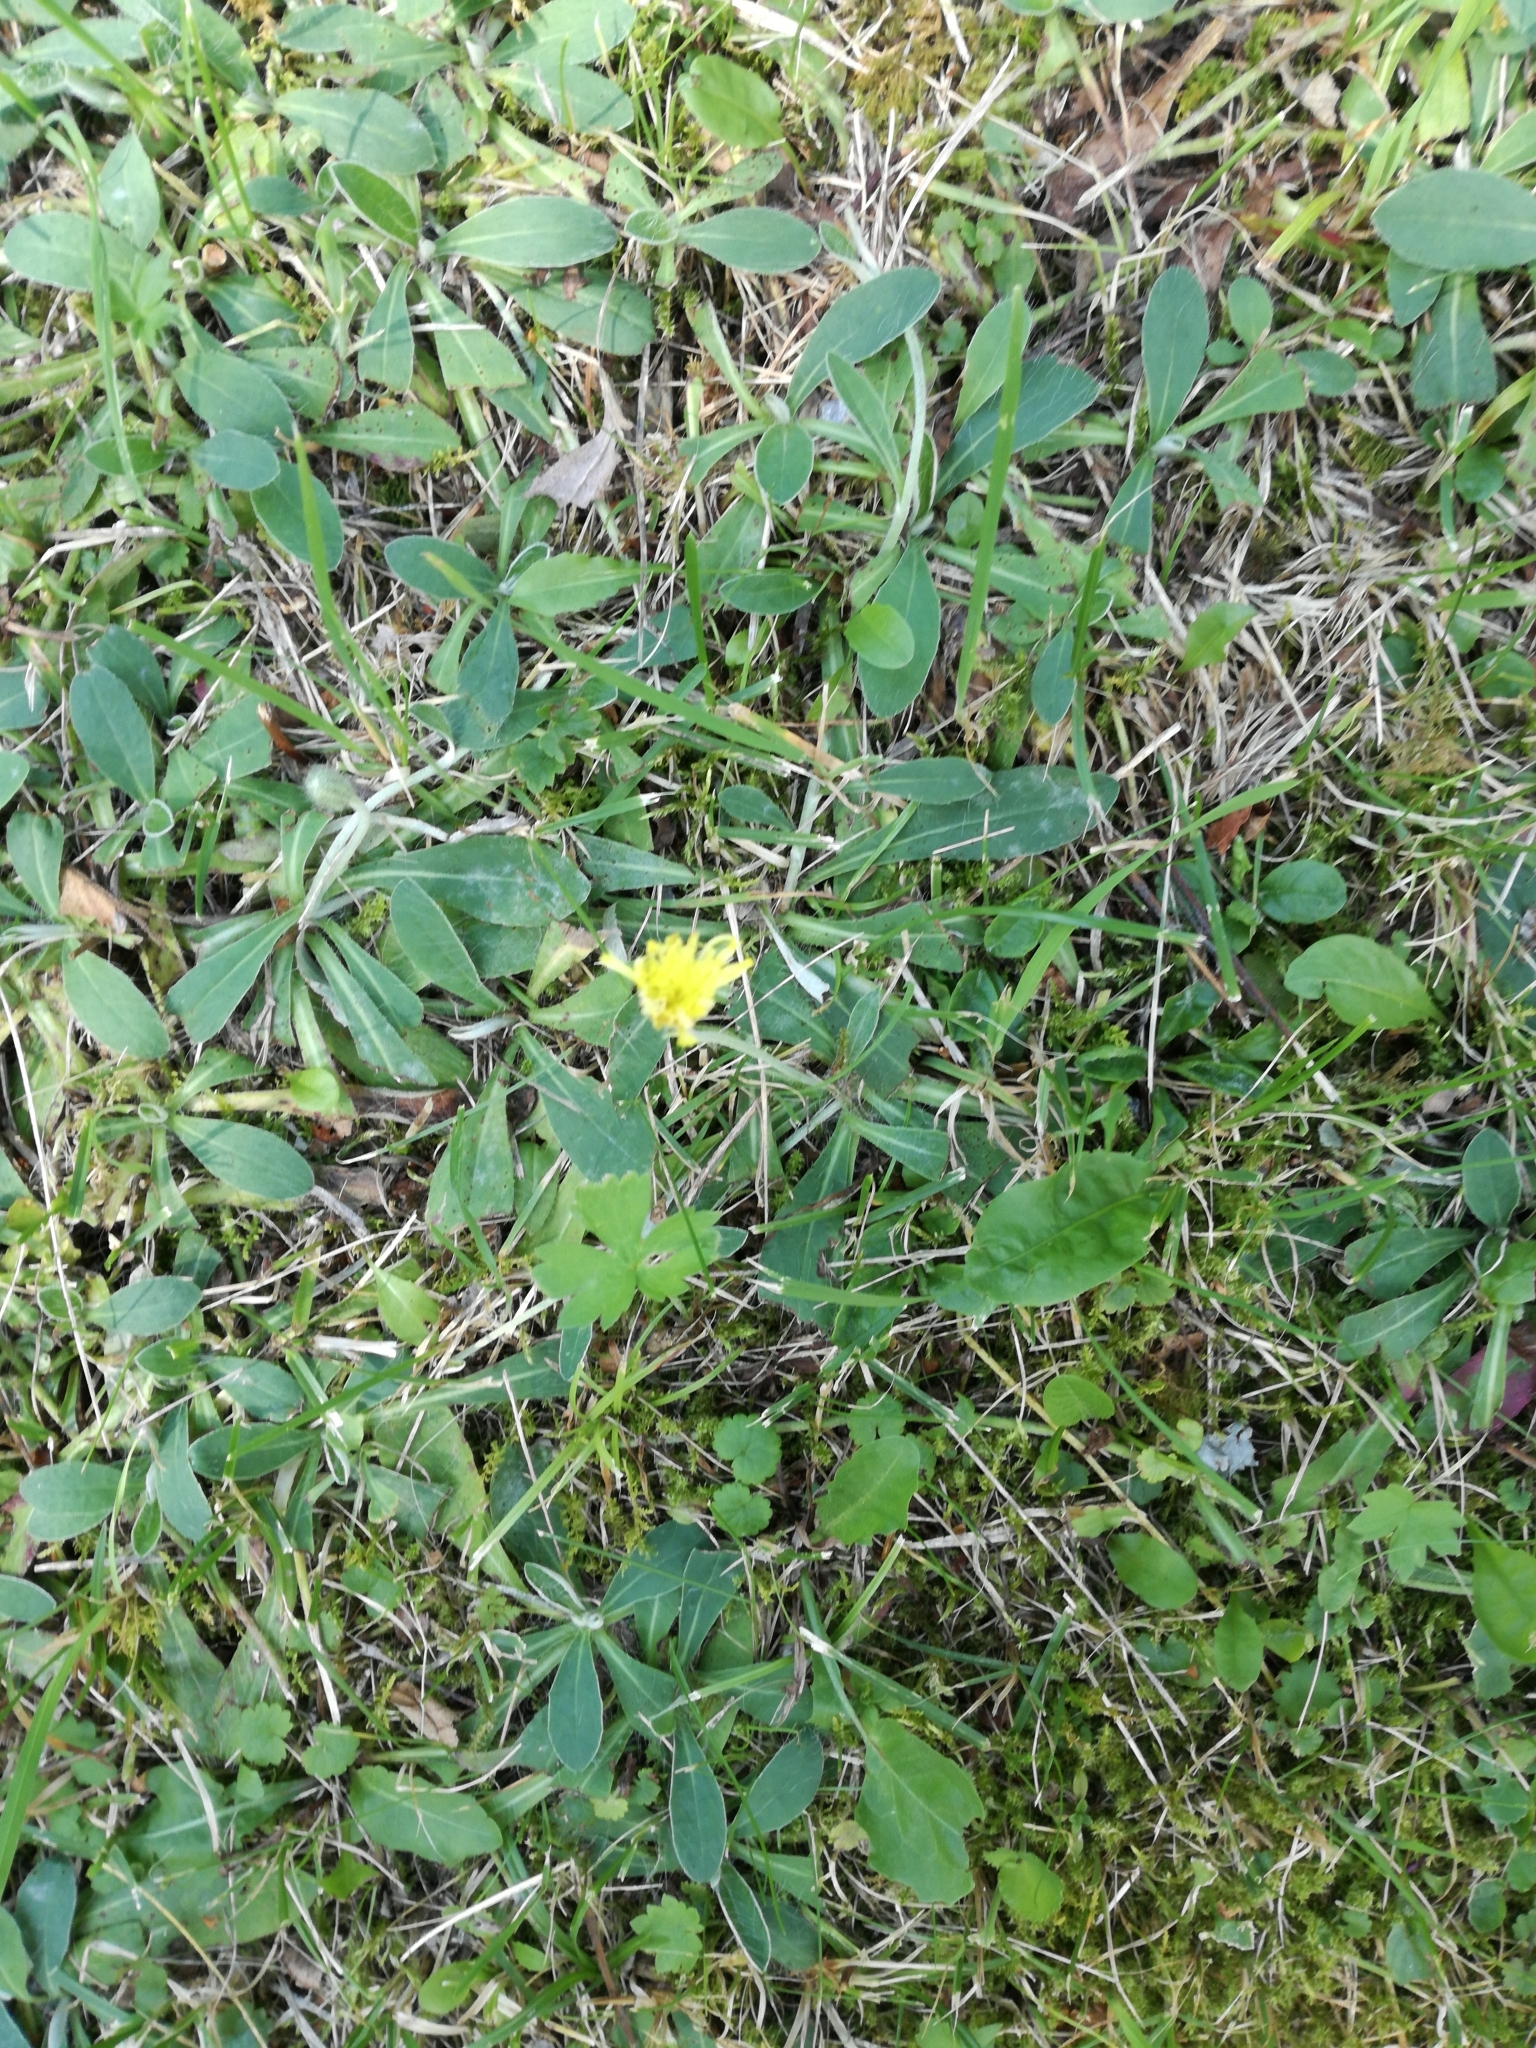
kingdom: Plantae
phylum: Tracheophyta
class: Magnoliopsida
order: Asterales
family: Asteraceae
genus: Pilosella
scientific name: Pilosella officinarum
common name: Mouse-ear hawkweed
